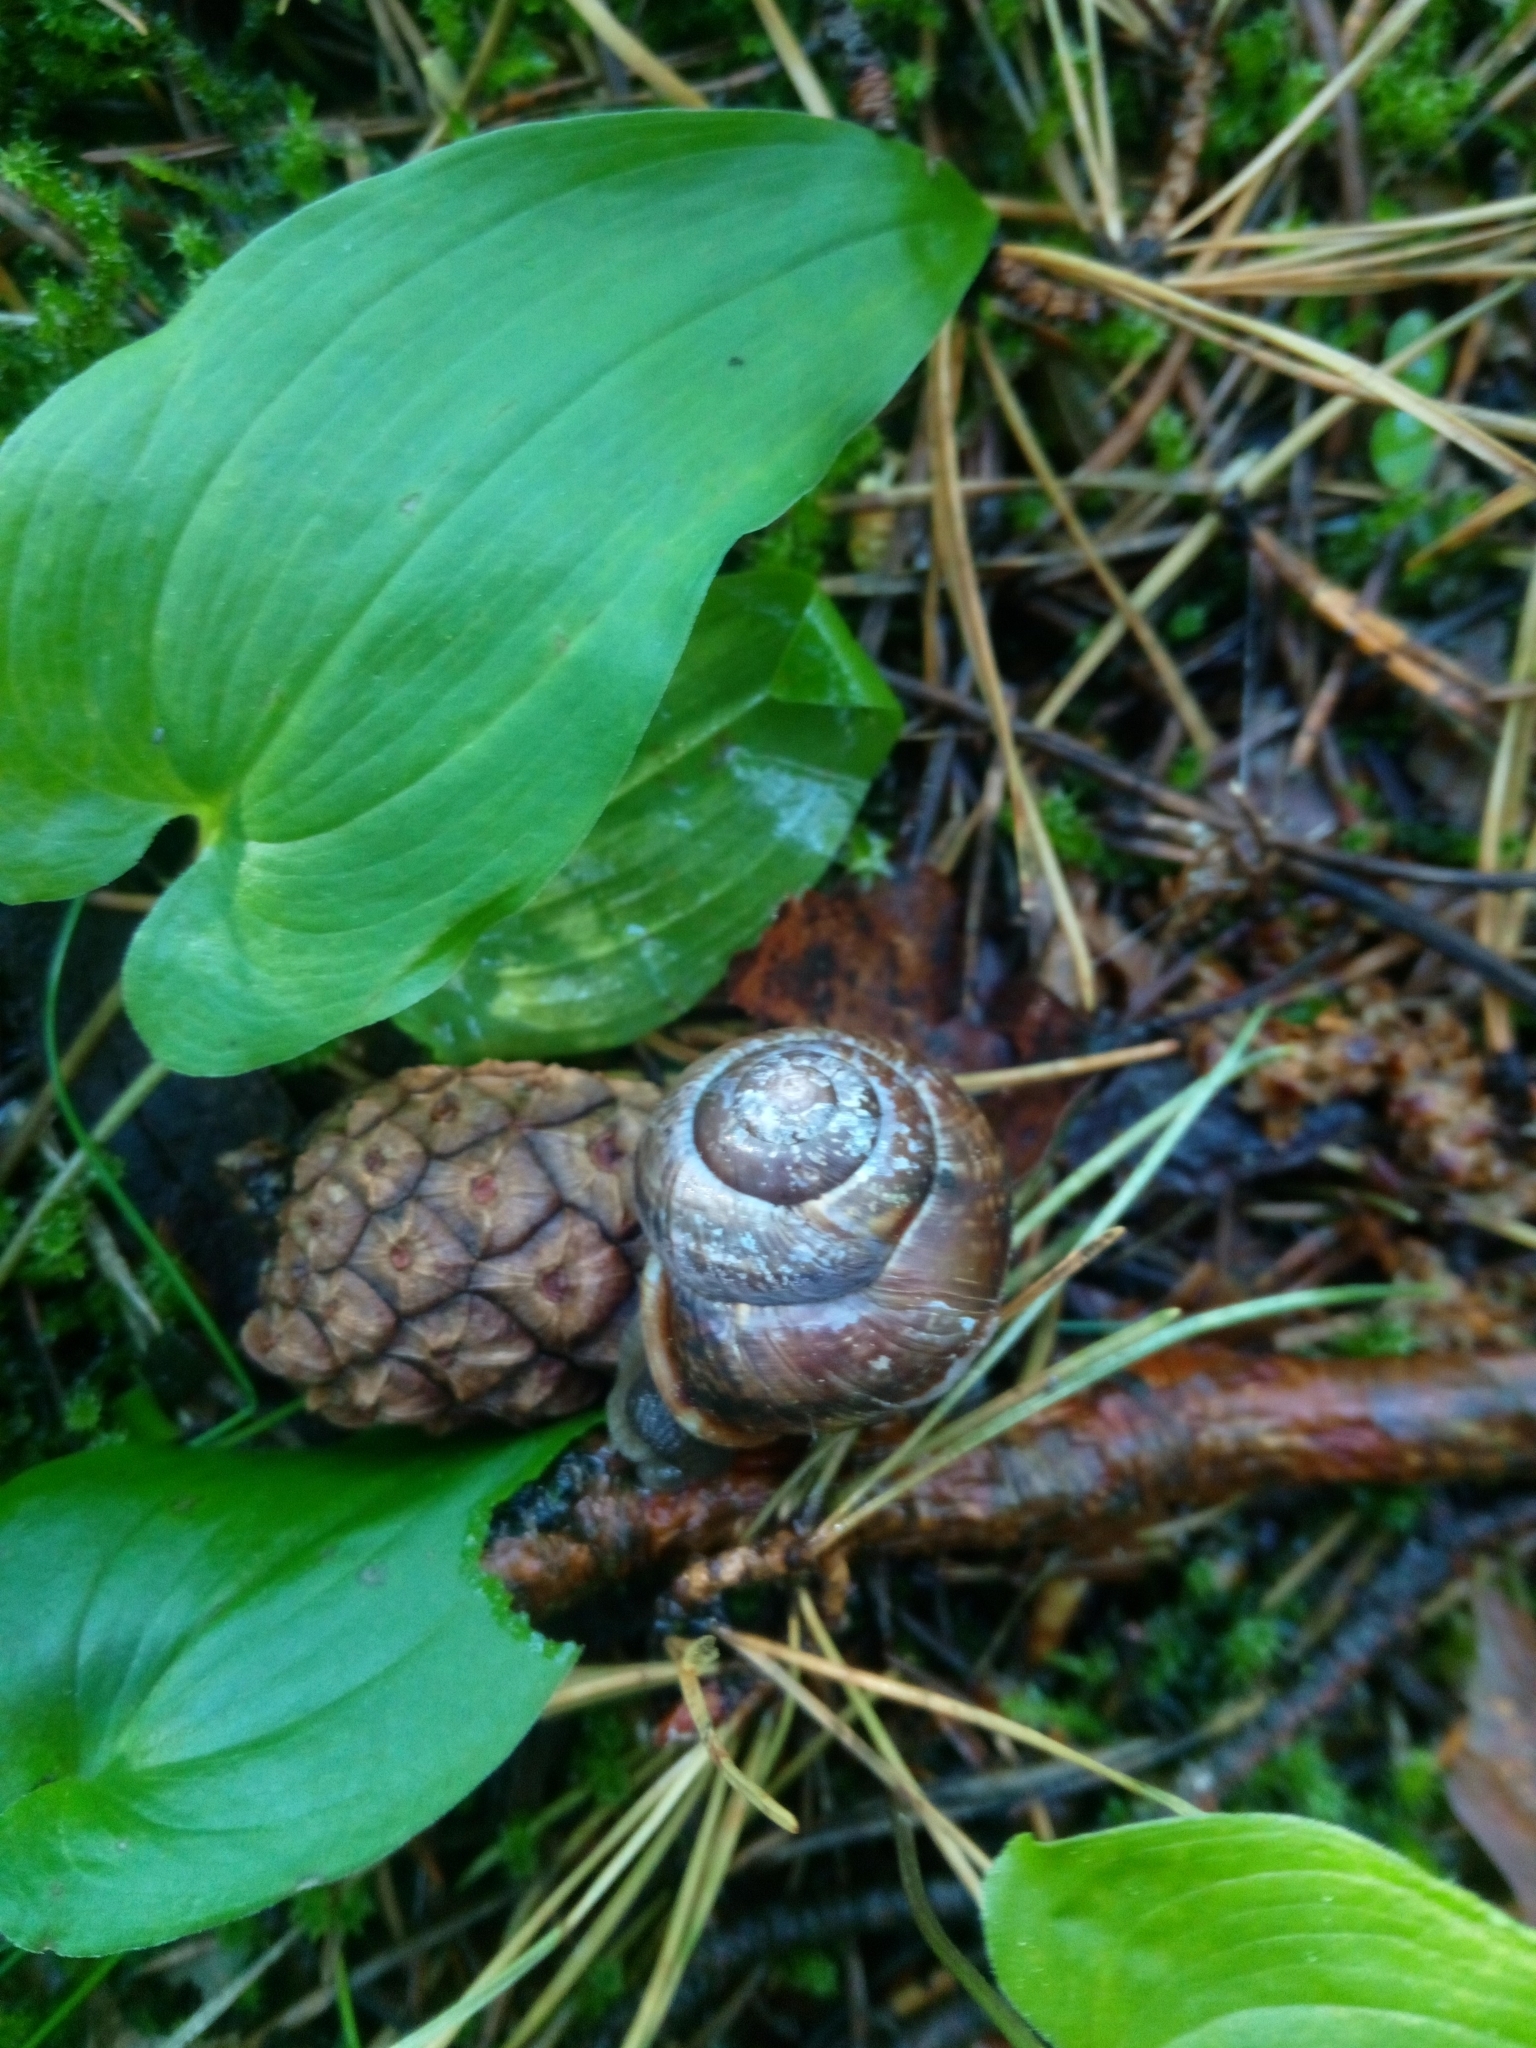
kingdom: Animalia
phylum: Mollusca
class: Gastropoda
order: Stylommatophora
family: Helicidae
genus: Arianta
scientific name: Arianta arbustorum
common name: Copse snail
